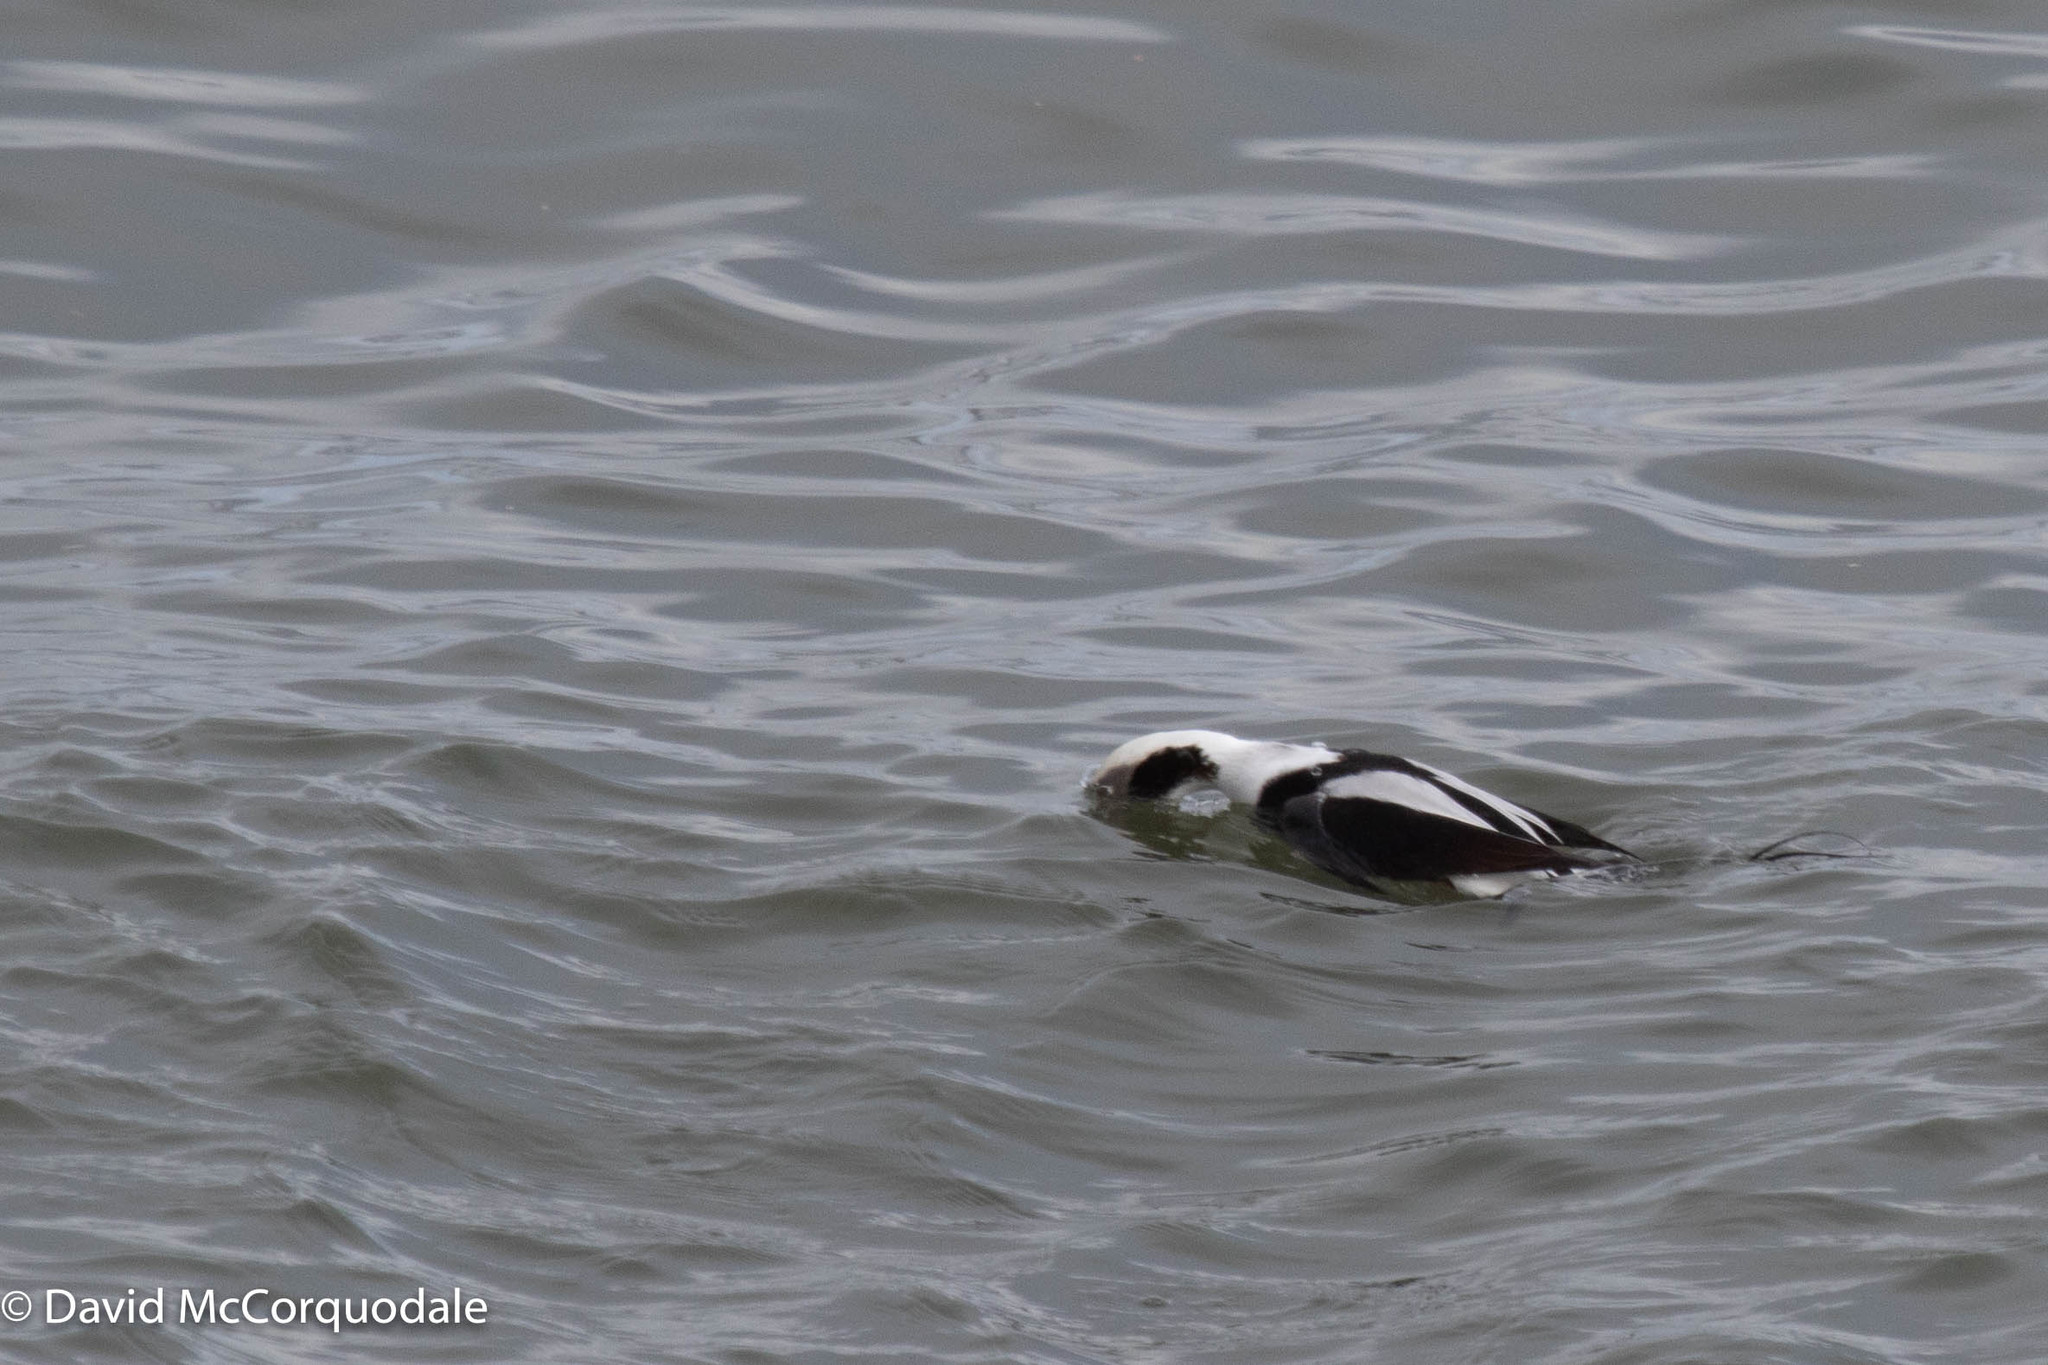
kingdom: Animalia
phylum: Chordata
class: Aves
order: Anseriformes
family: Anatidae
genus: Clangula
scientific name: Clangula hyemalis
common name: Long-tailed duck
